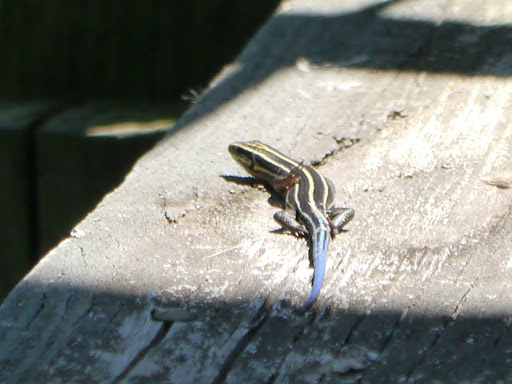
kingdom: Animalia
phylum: Chordata
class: Squamata
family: Scincidae
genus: Plestiodon
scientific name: Plestiodon fasciatus
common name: Five-lined skink
